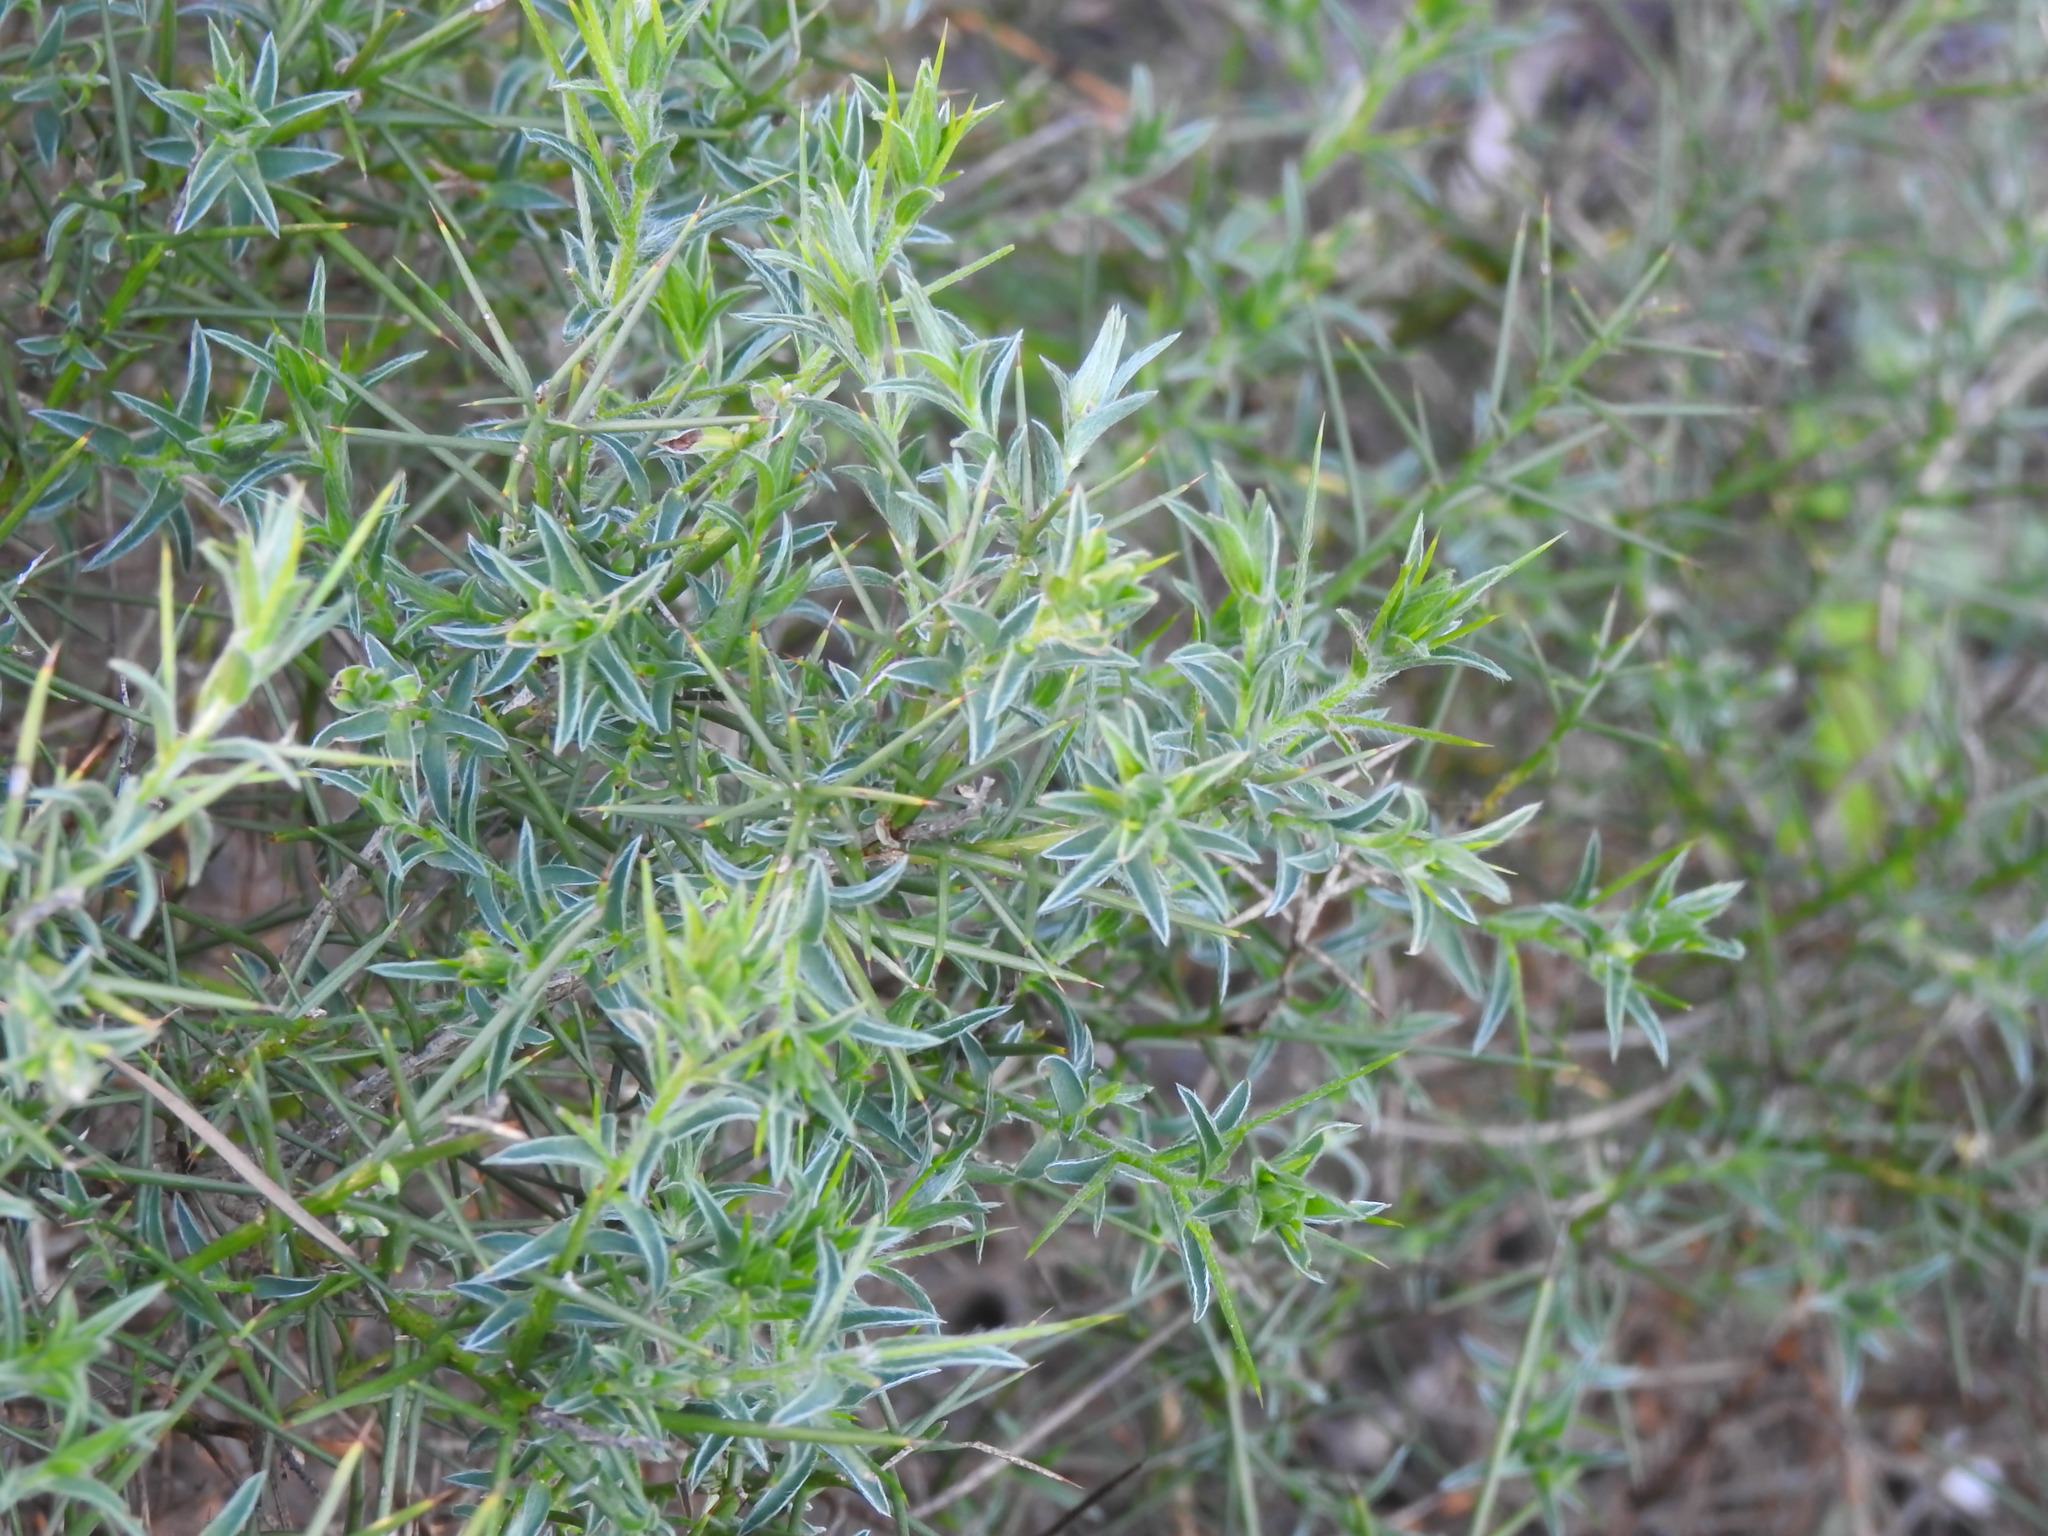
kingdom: Plantae
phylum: Tracheophyta
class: Magnoliopsida
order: Fabales
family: Fabaceae
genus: Genista
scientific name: Genista hirsuta
